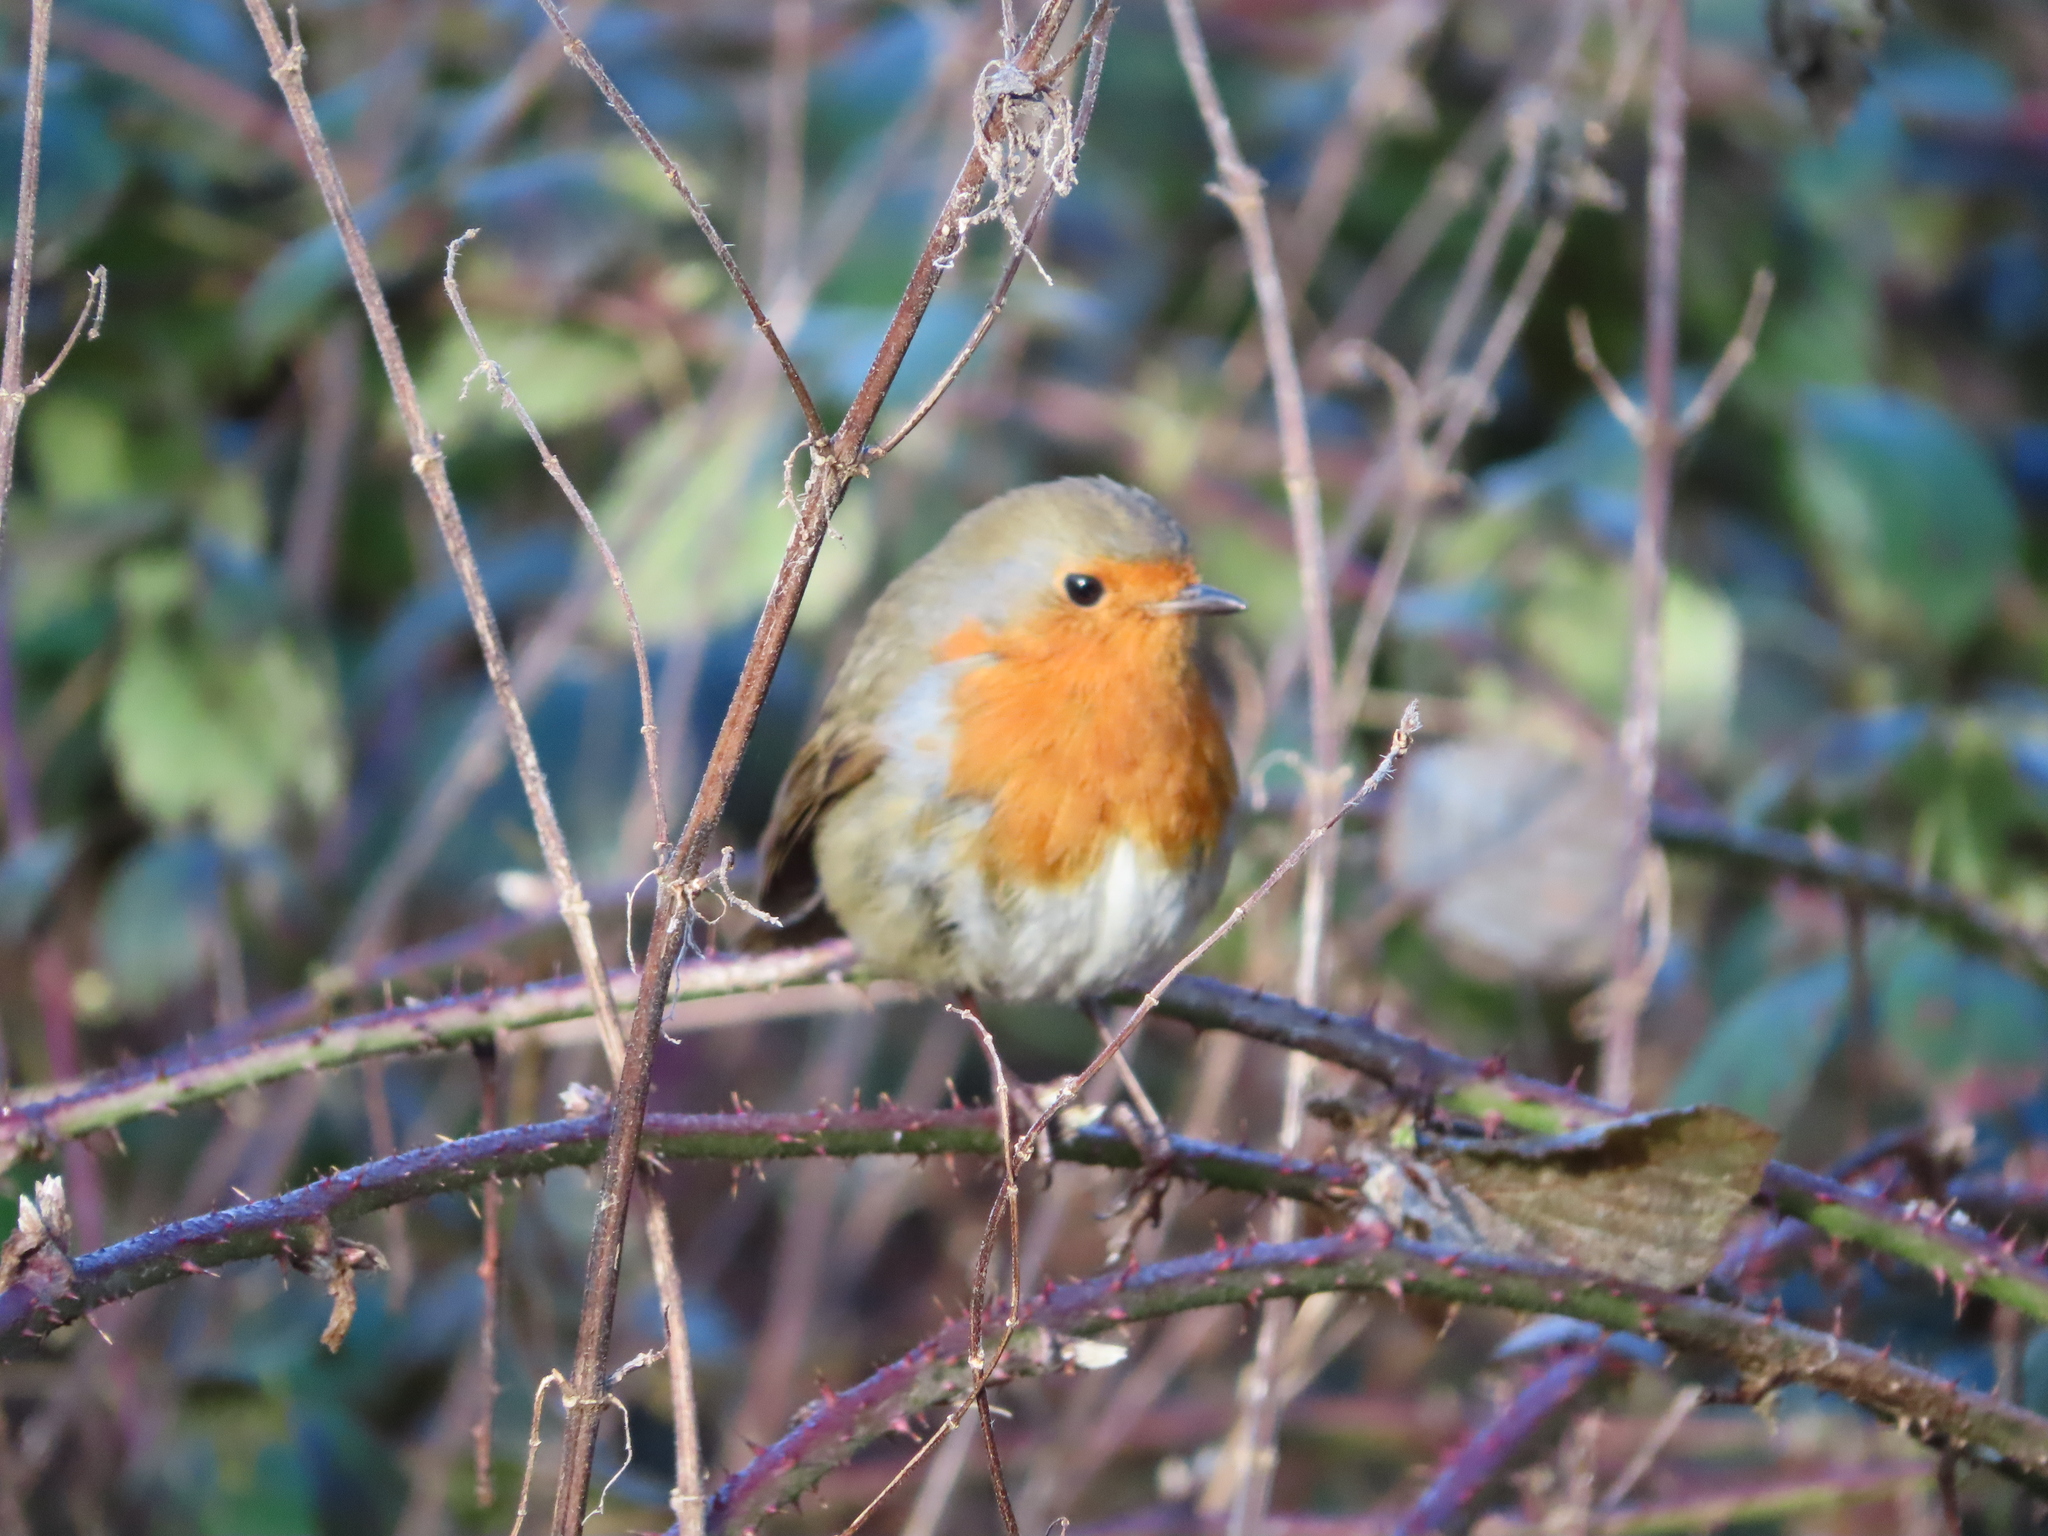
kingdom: Animalia
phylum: Chordata
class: Aves
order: Passeriformes
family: Muscicapidae
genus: Erithacus
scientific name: Erithacus rubecula
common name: European robin
